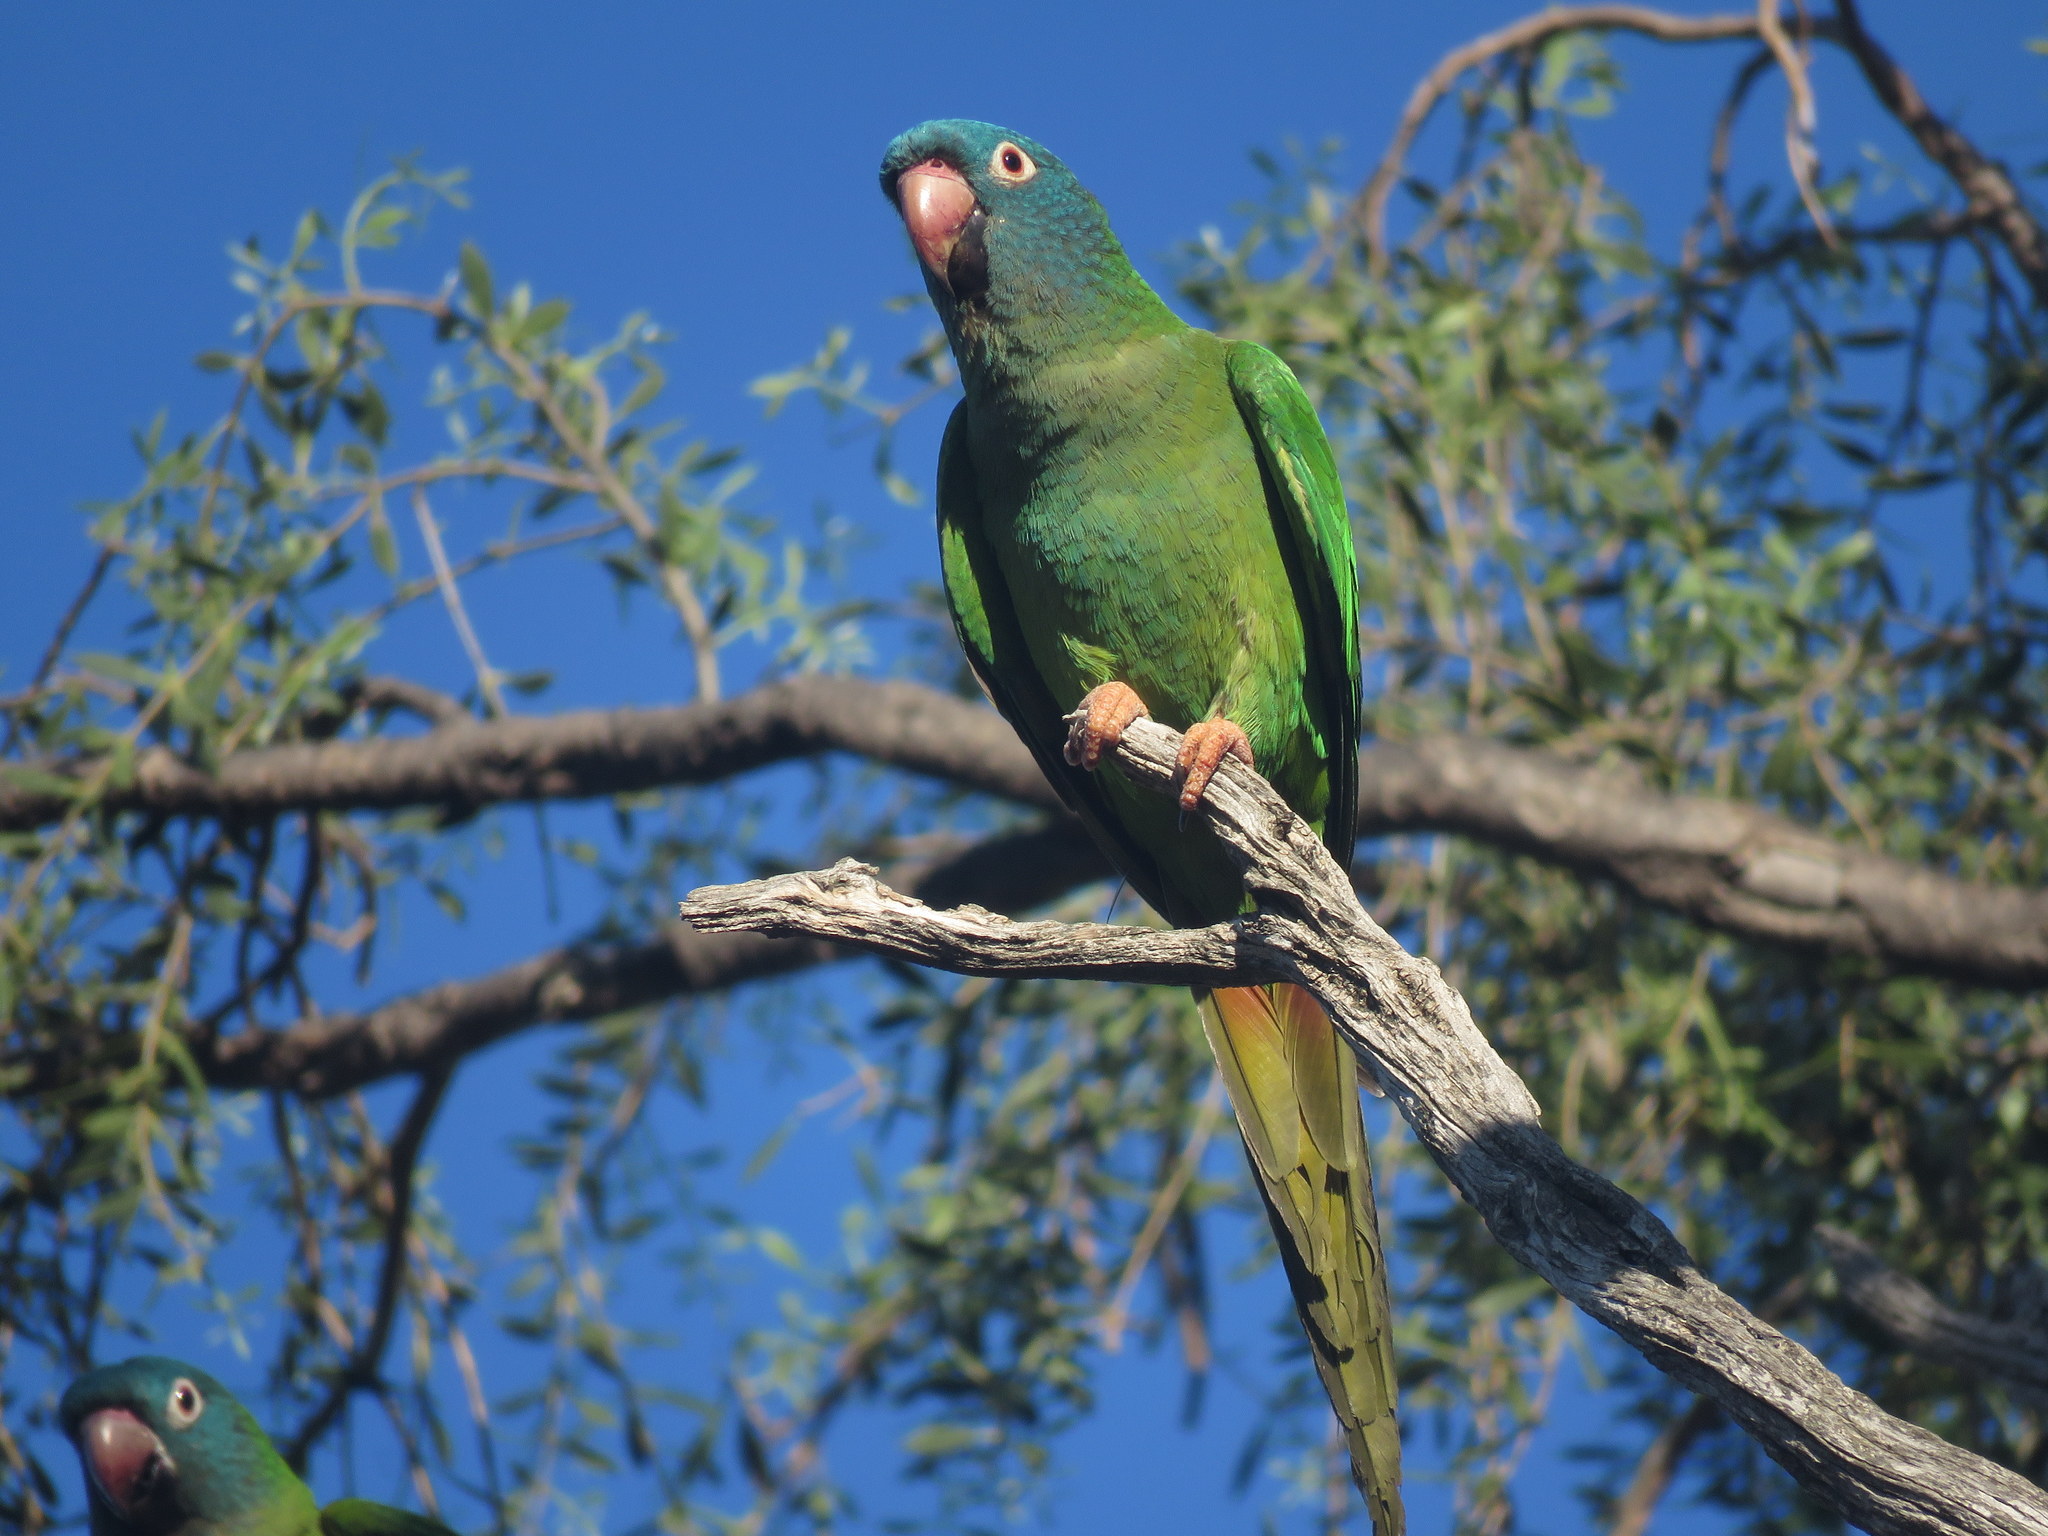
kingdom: Animalia
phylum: Chordata
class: Aves
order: Psittaciformes
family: Psittacidae
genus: Aratinga
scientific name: Aratinga acuticaudata
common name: Blue-crowned parakeet
